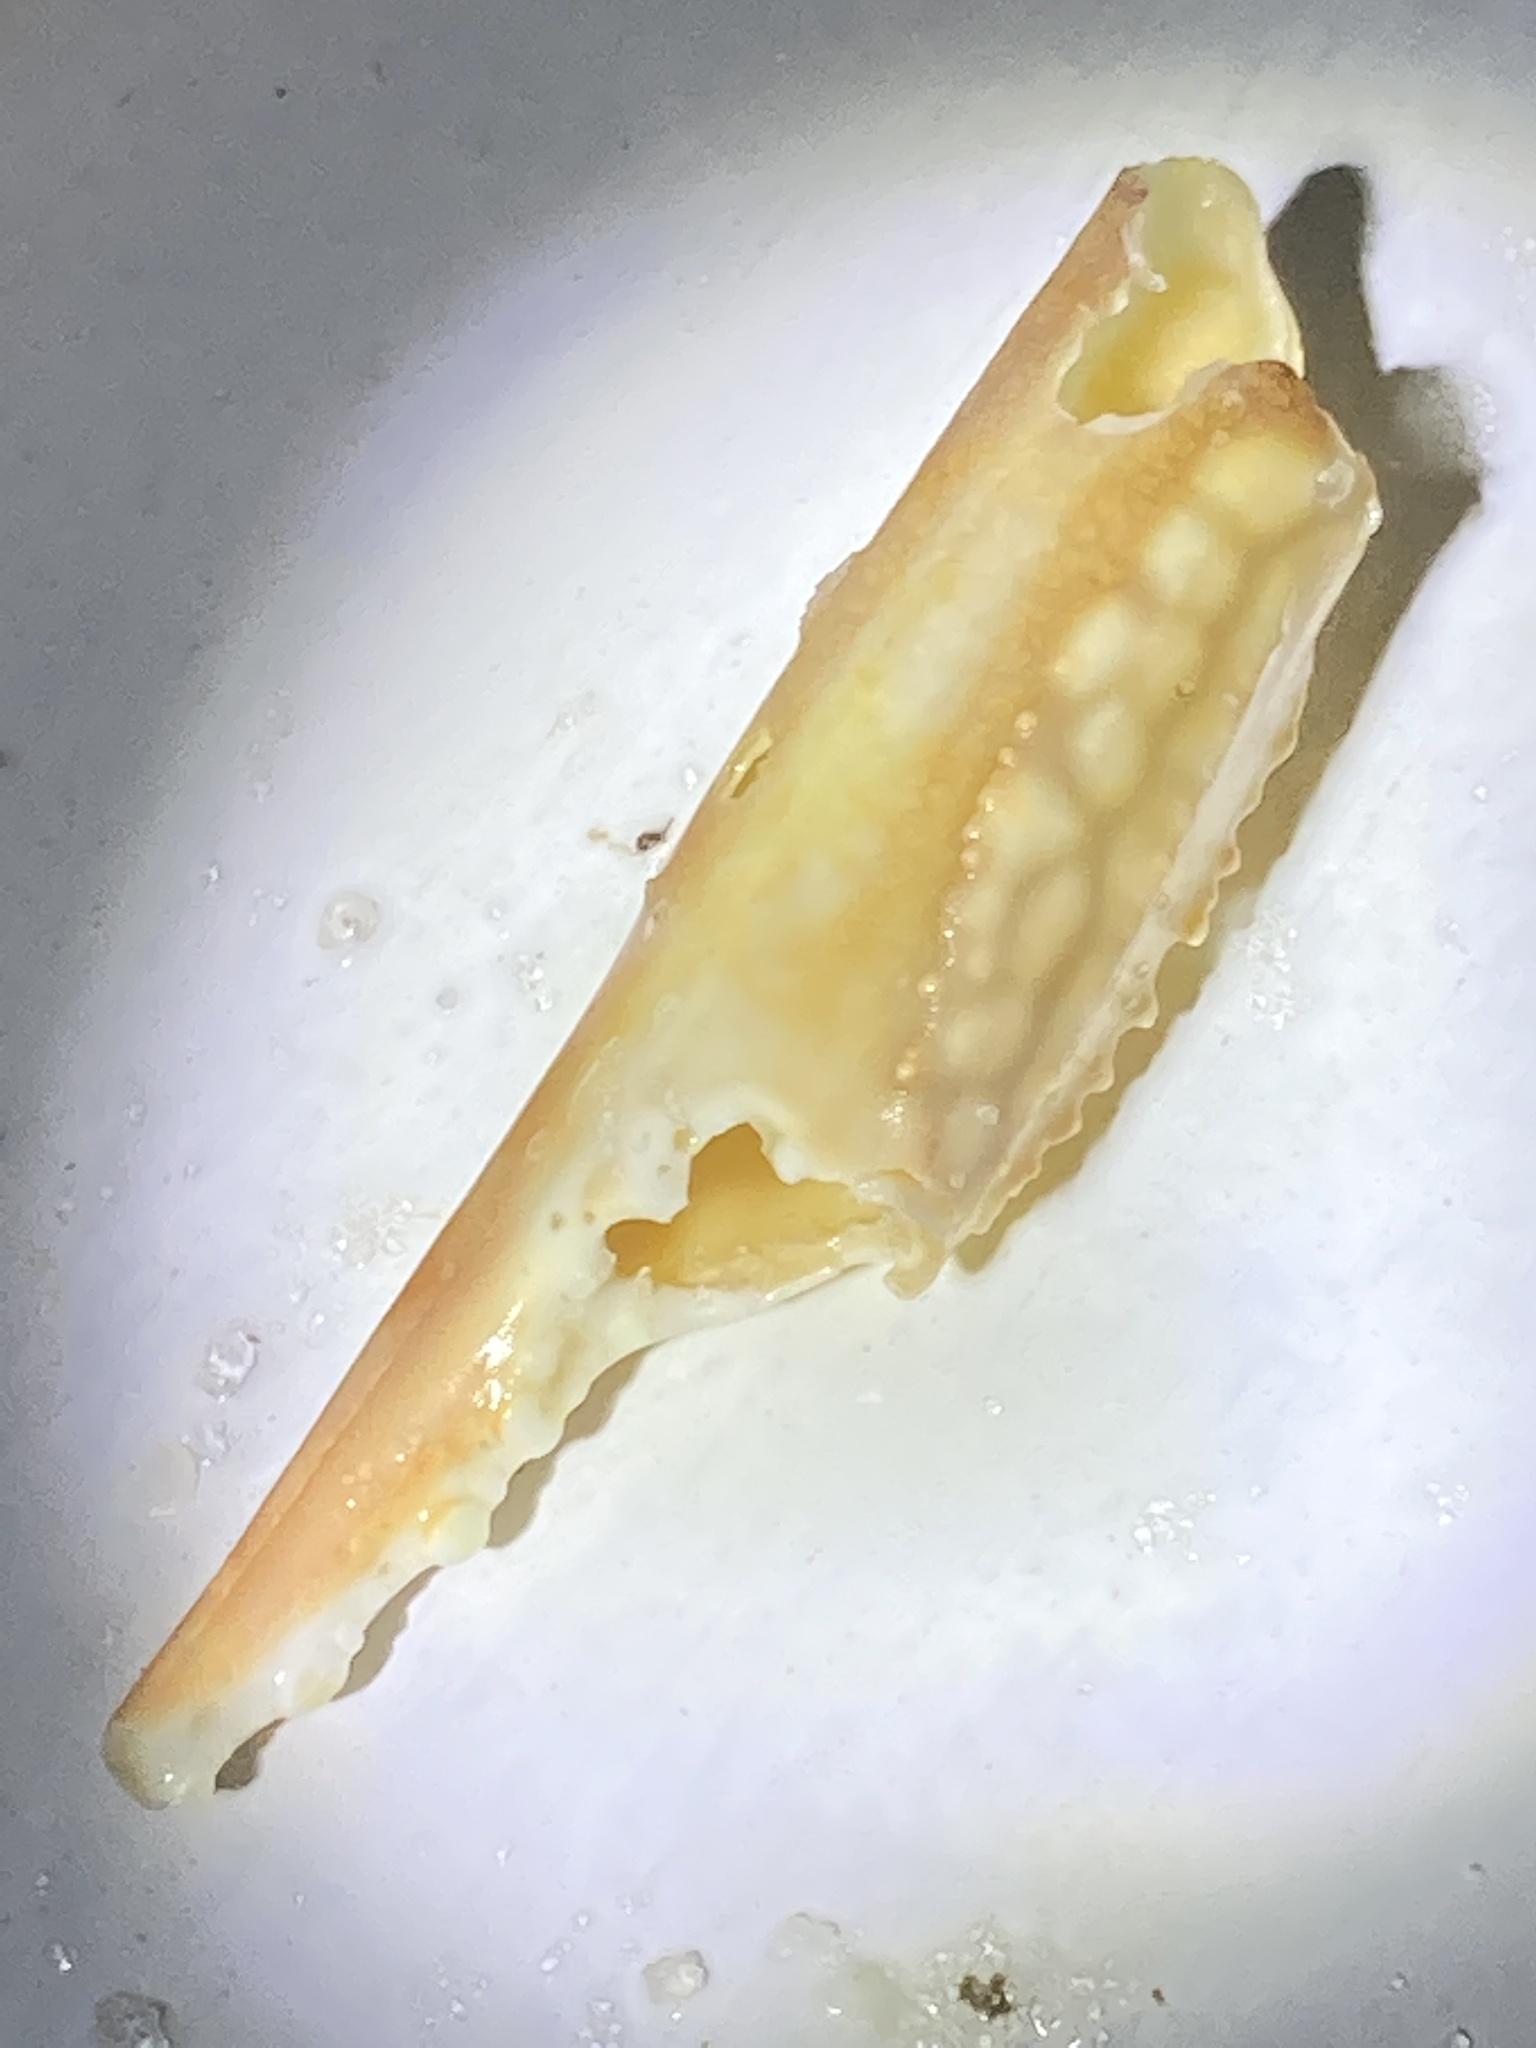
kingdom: Animalia
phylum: Arthropoda
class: Malacostraca
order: Decapoda
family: Portunidae
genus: Arenaeus
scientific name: Arenaeus cribrarius
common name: Speckled crab
